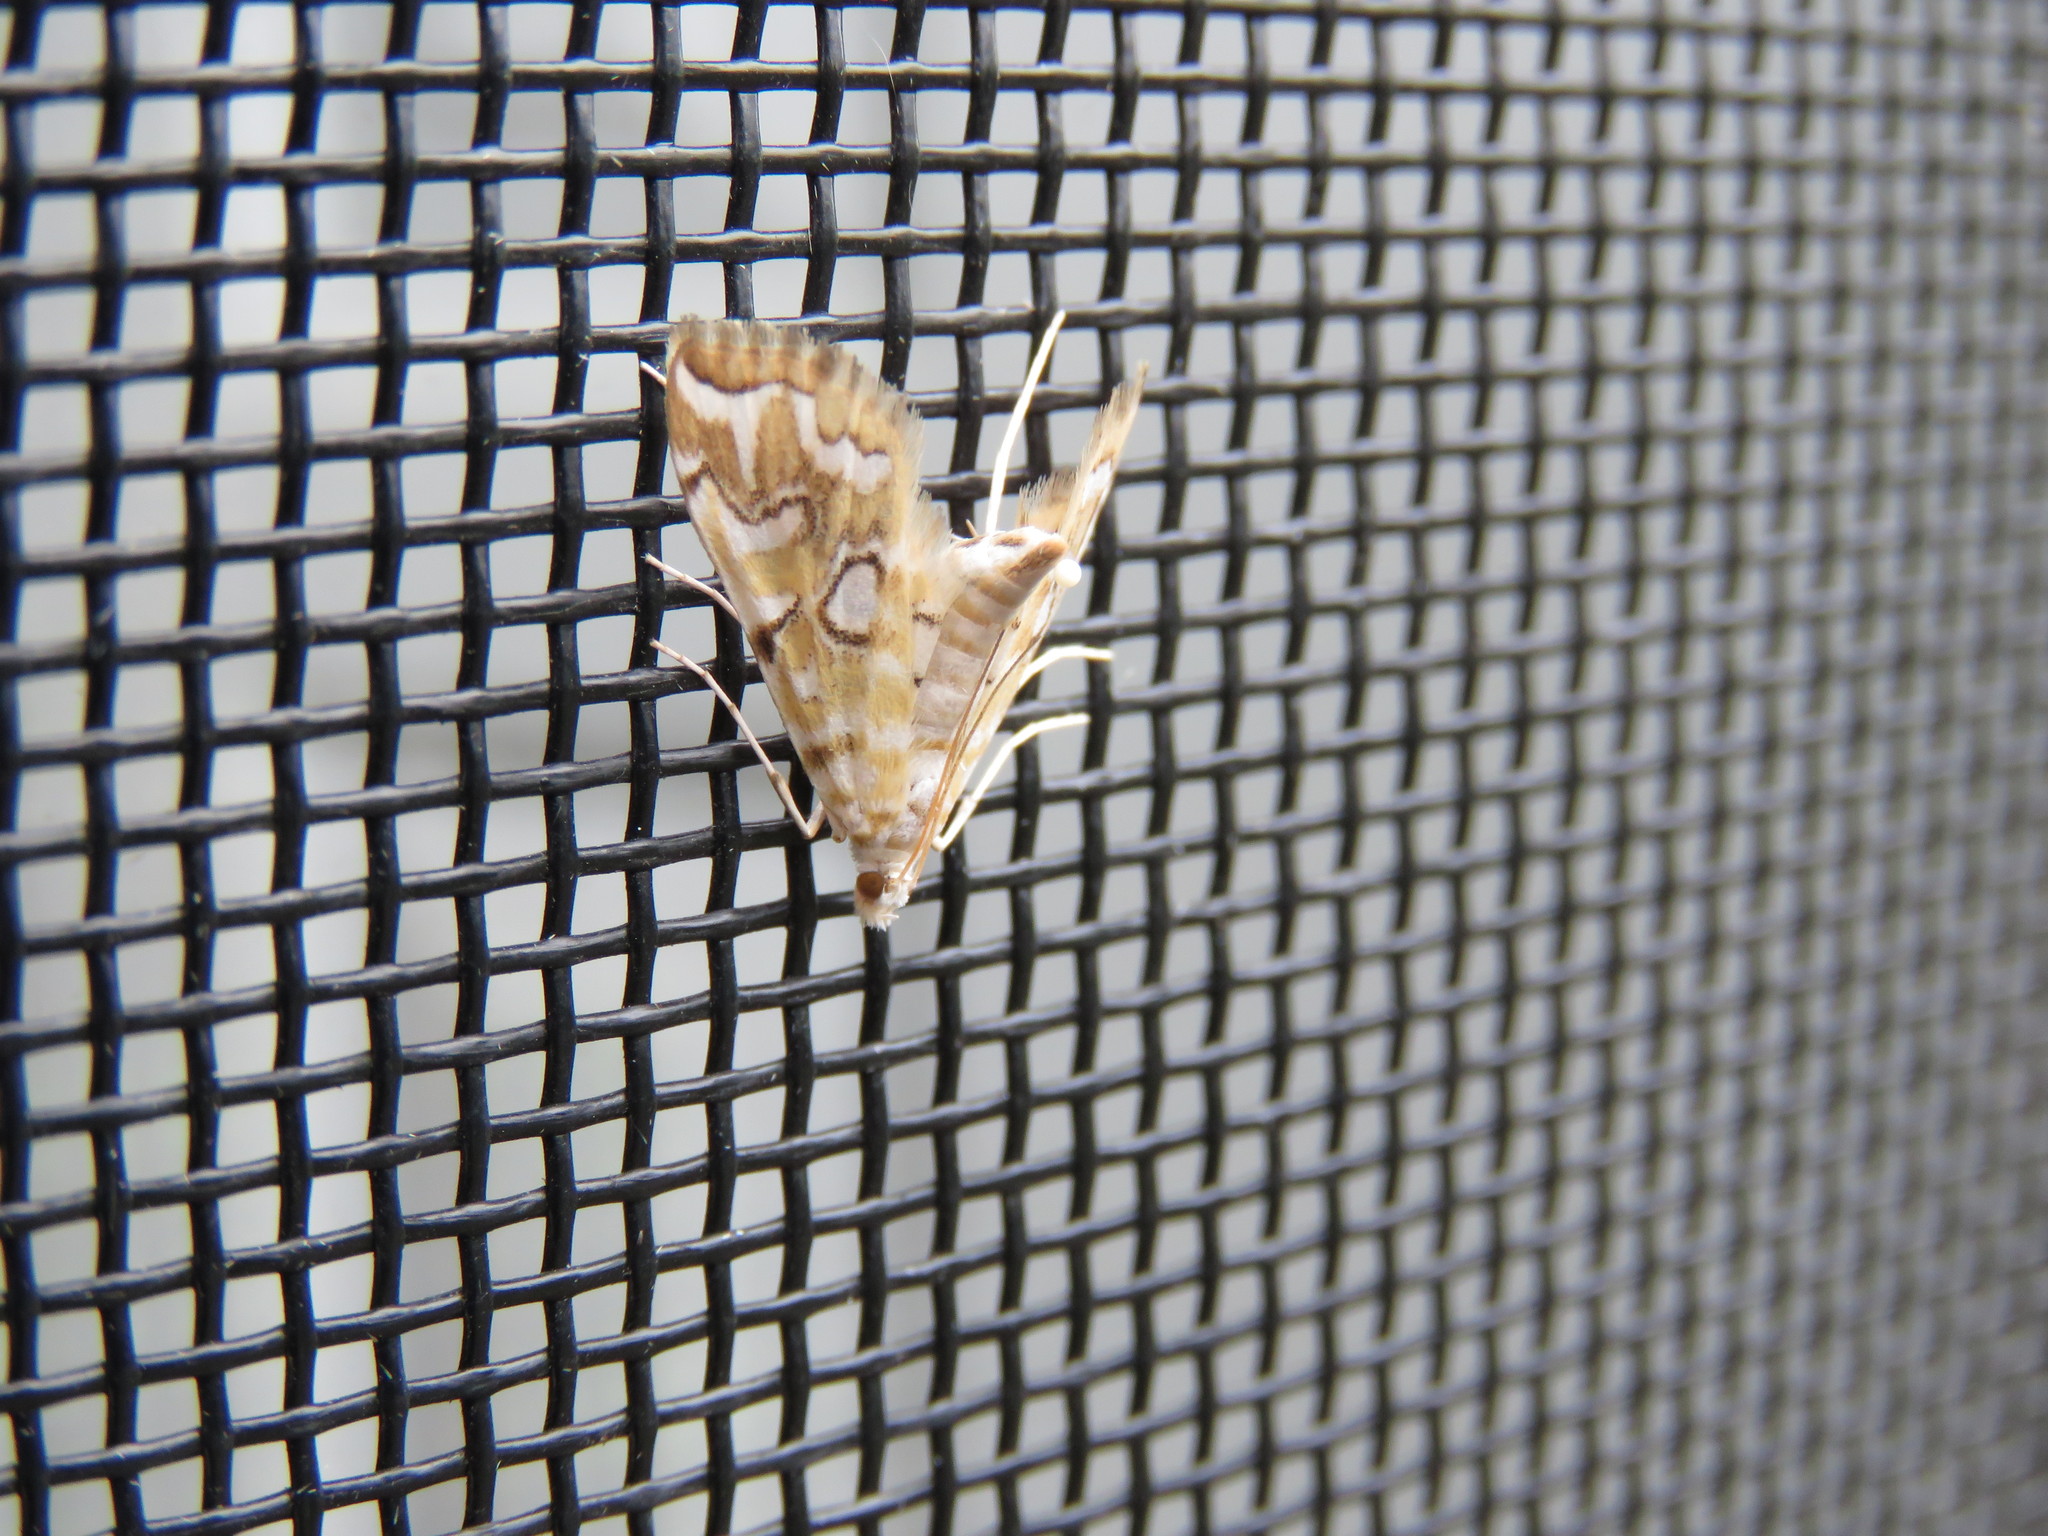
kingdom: Animalia
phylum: Arthropoda
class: Insecta
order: Lepidoptera
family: Crambidae
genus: Elophila
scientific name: Elophila icciusalis
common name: Pondside pyralid moth
